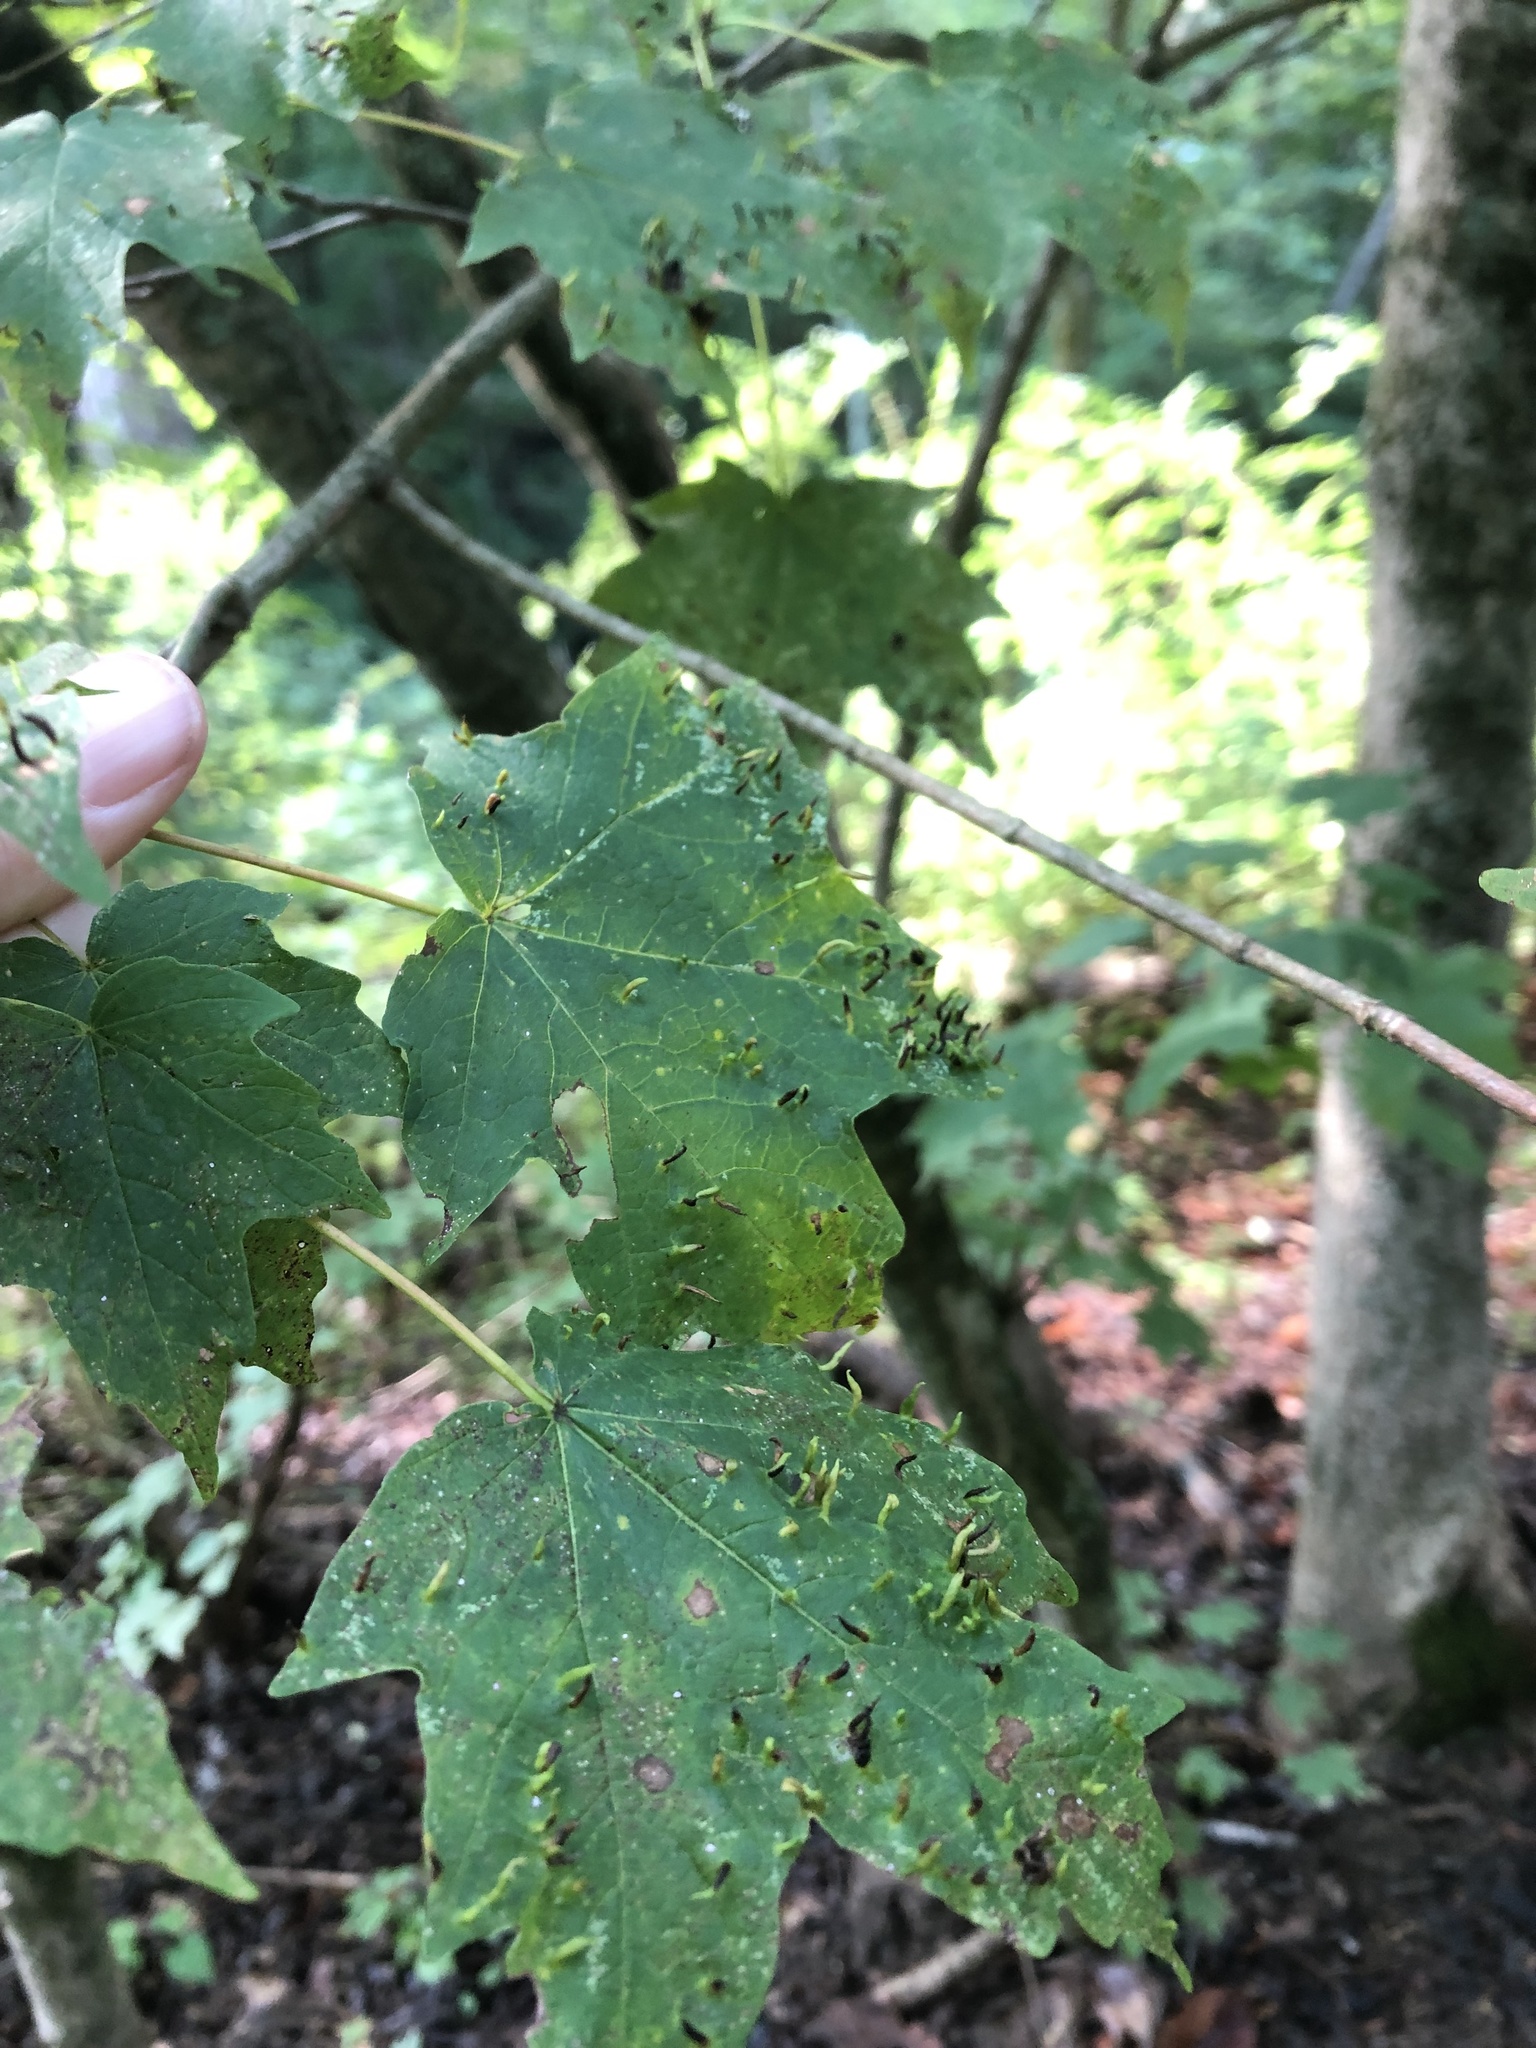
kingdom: Animalia
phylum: Arthropoda
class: Arachnida
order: Trombidiformes
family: Eriophyidae
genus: Vasates
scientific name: Vasates aceriscrumena
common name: Maple spindle gall mite
